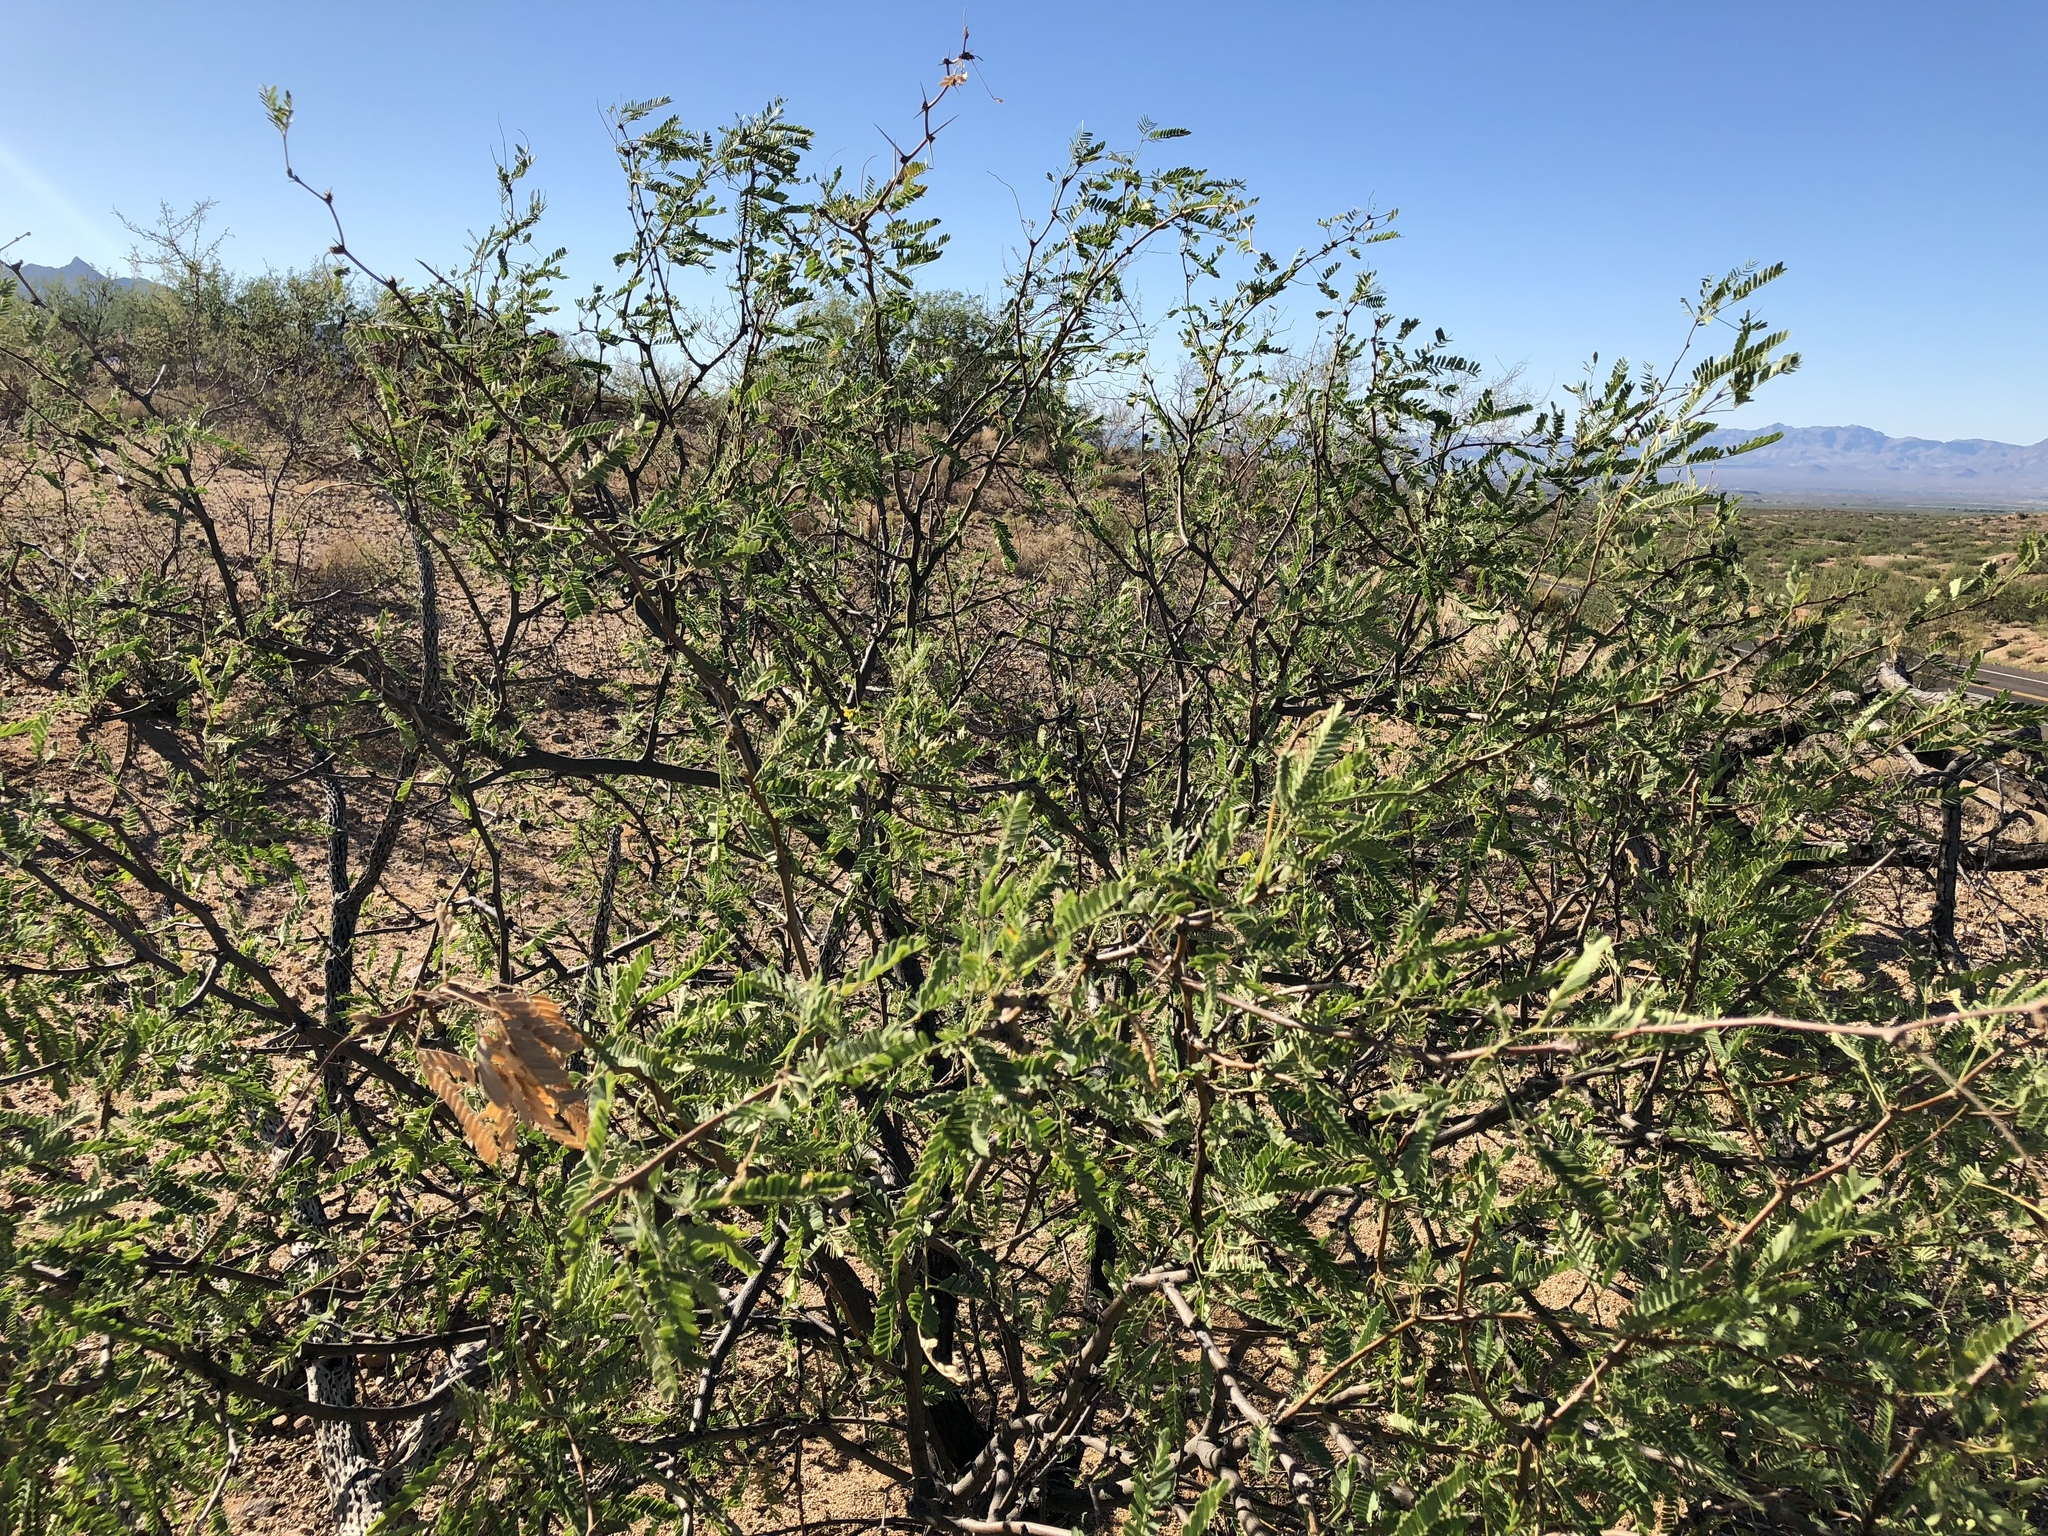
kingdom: Plantae
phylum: Tracheophyta
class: Magnoliopsida
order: Fabales
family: Fabaceae
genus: Prosopis
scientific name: Prosopis velutina
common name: Velvet mesquite
